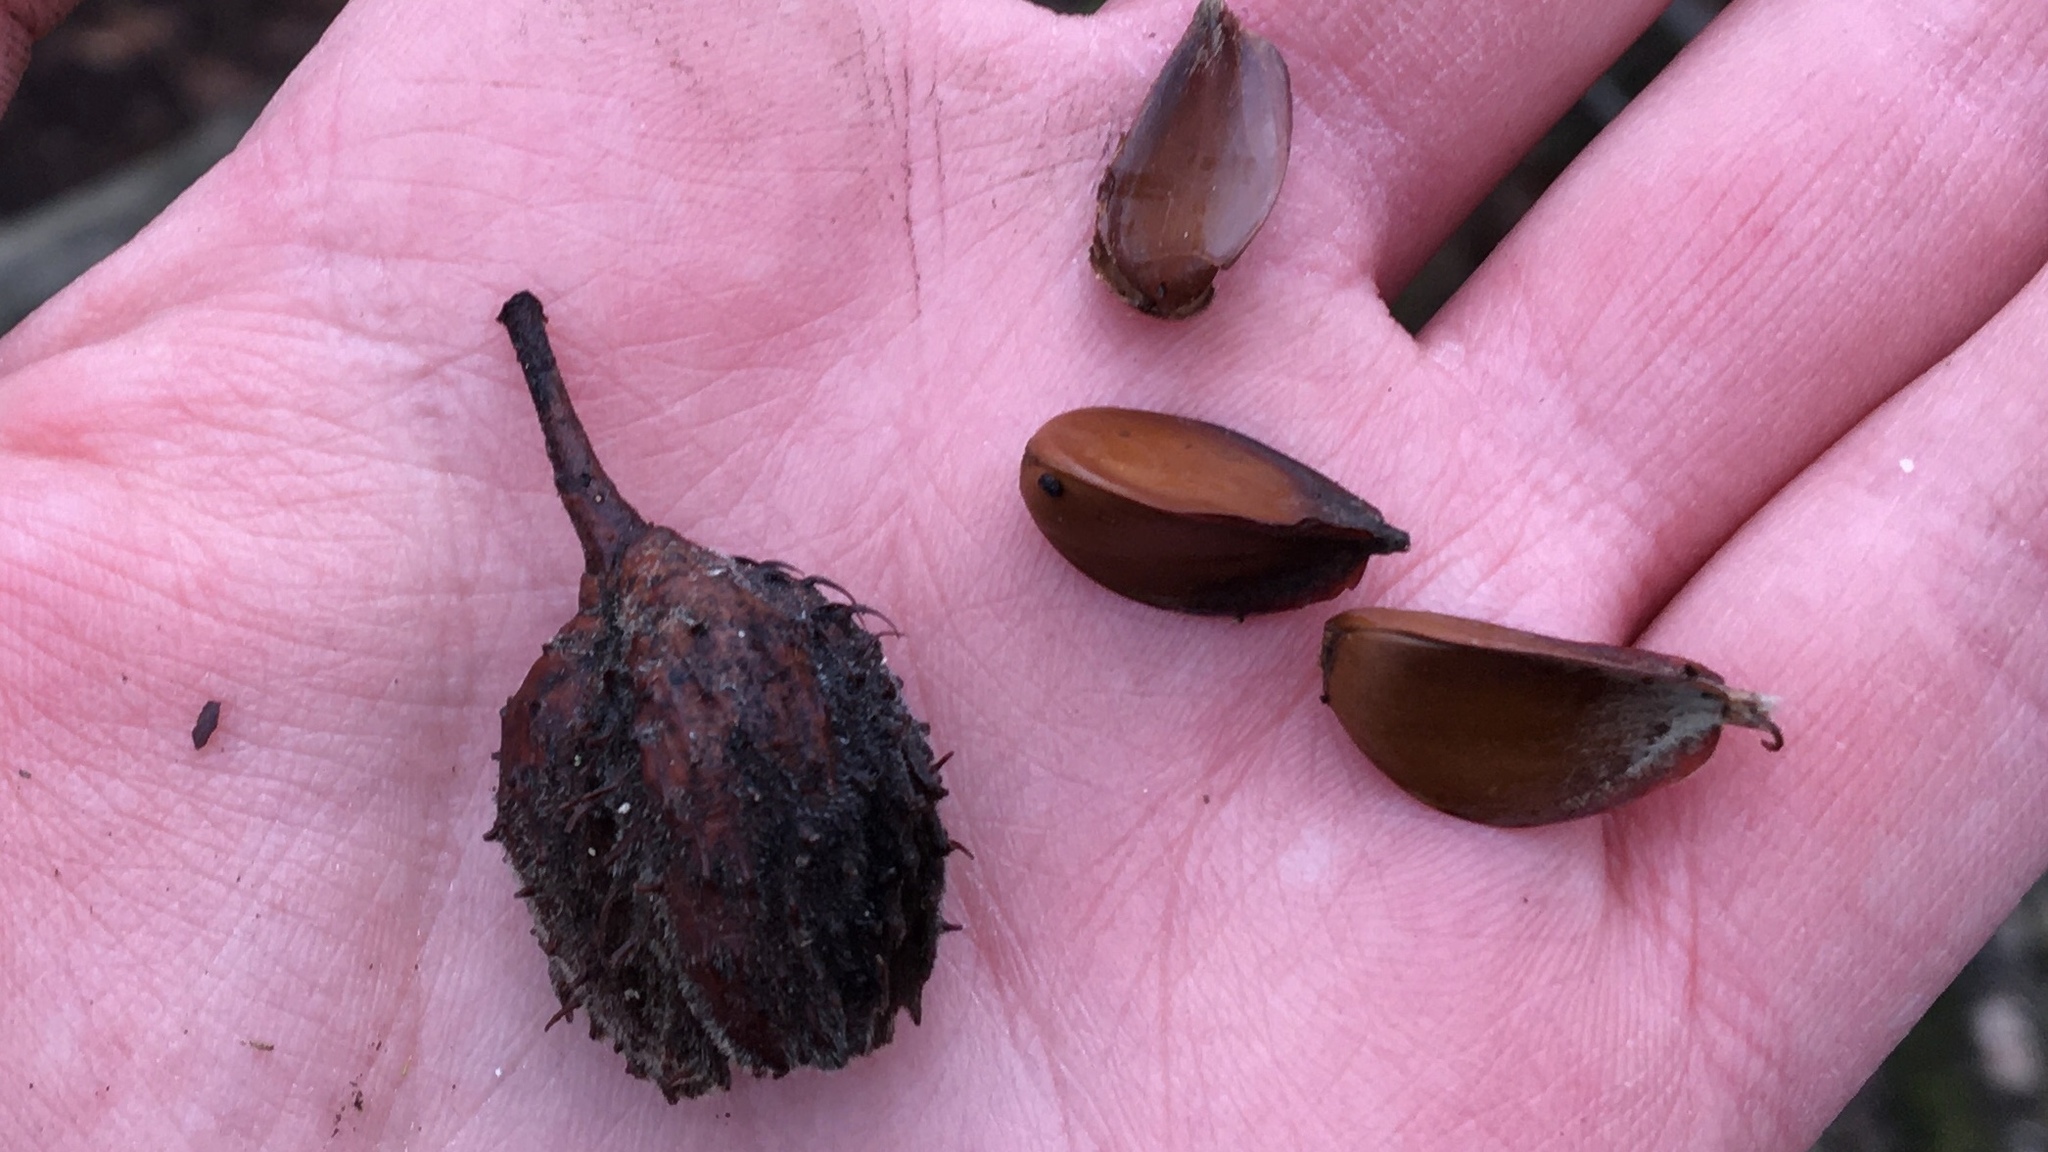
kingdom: Plantae
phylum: Tracheophyta
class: Magnoliopsida
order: Fagales
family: Fagaceae
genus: Fagus
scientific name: Fagus sylvatica
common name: Beech
